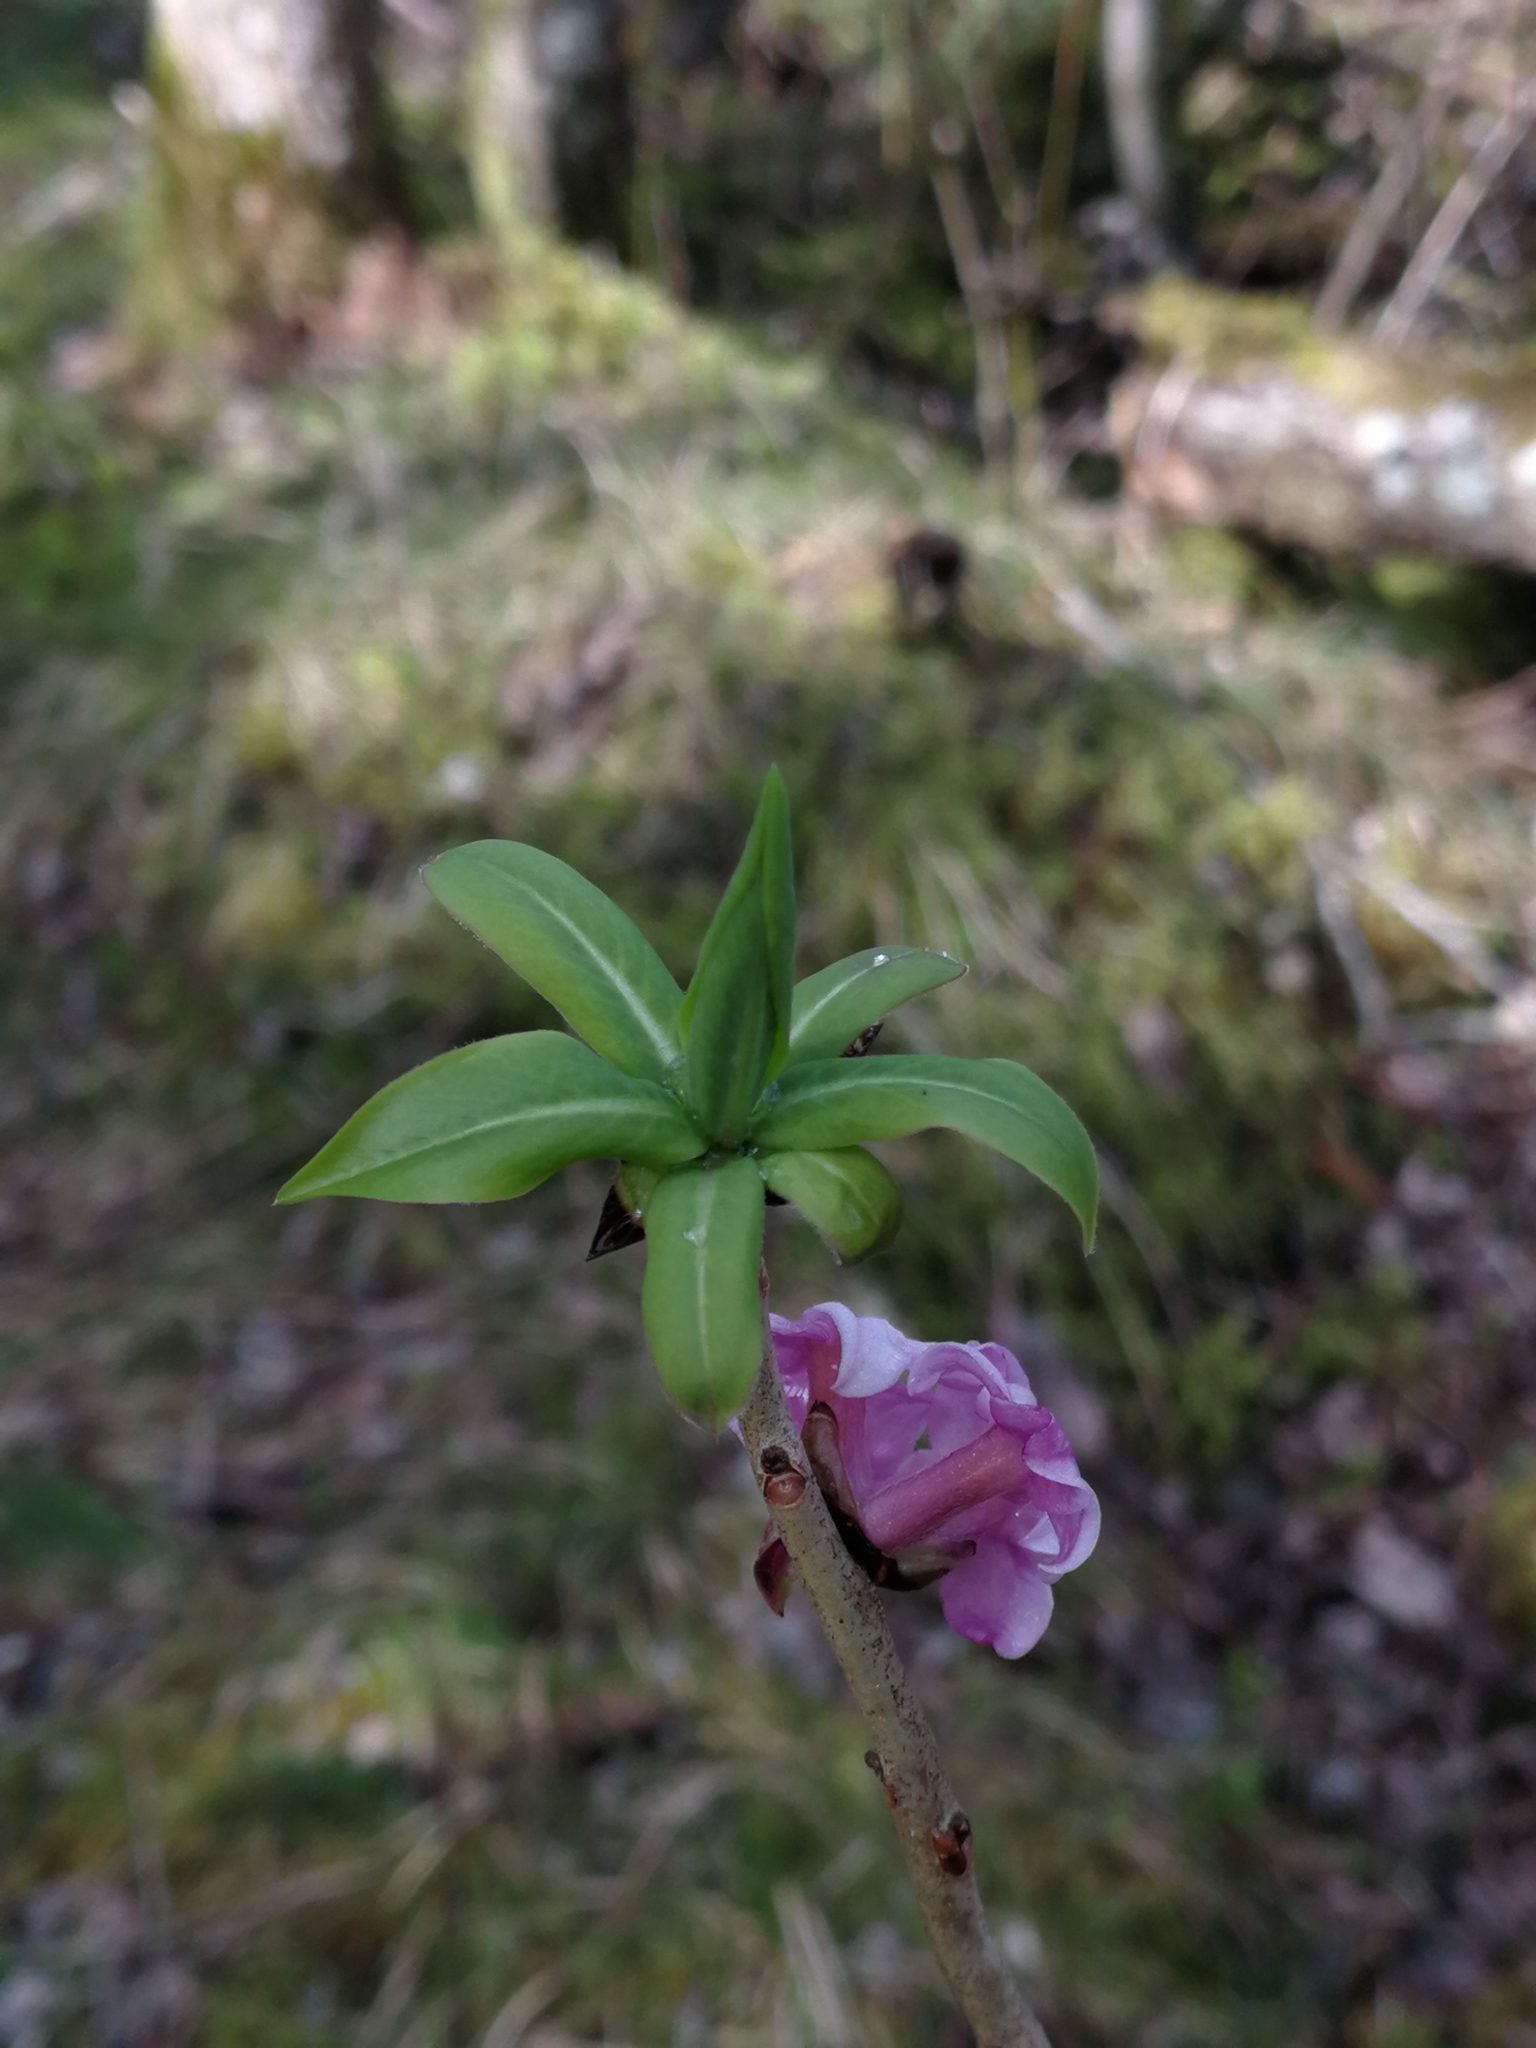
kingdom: Plantae
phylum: Tracheophyta
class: Magnoliopsida
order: Malvales
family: Thymelaeaceae
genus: Daphne
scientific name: Daphne mezereum
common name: Mezereon
